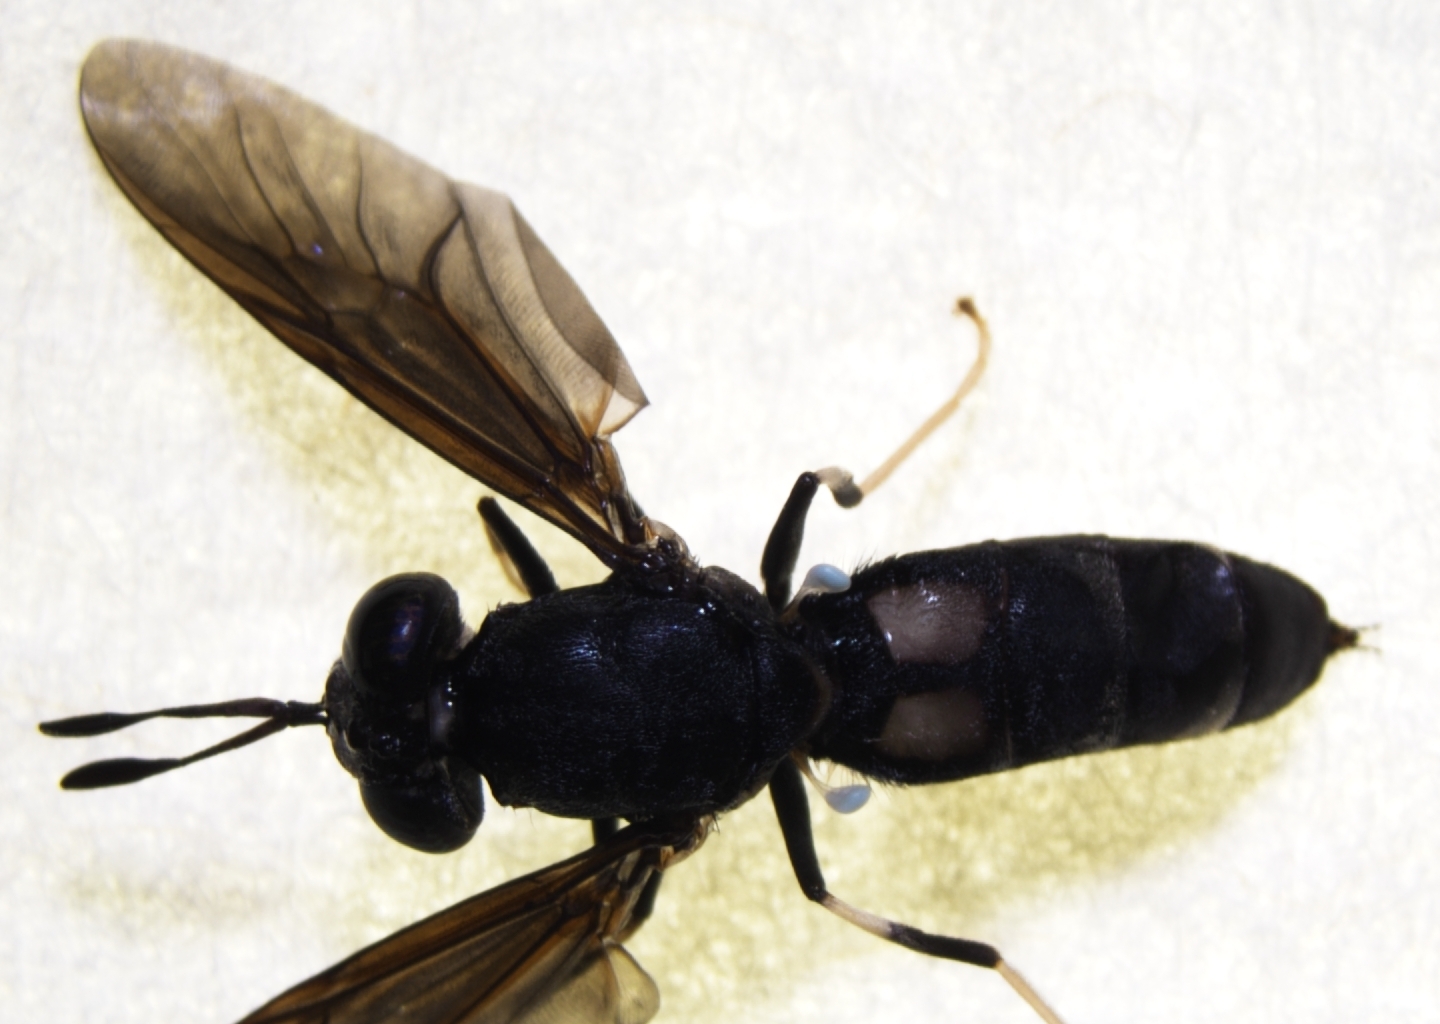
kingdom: Animalia
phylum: Arthropoda
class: Insecta
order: Diptera
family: Stratiomyidae
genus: Hermetia
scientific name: Hermetia illucens
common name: Black soldier fly
